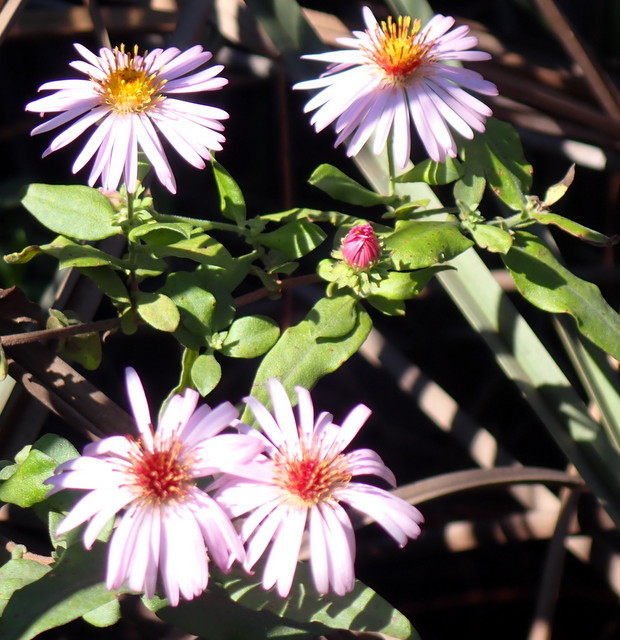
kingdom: Plantae
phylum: Tracheophyta
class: Magnoliopsida
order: Asterales
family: Asteraceae
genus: Ampelaster
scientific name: Ampelaster carolinianus
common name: Climbing aster
